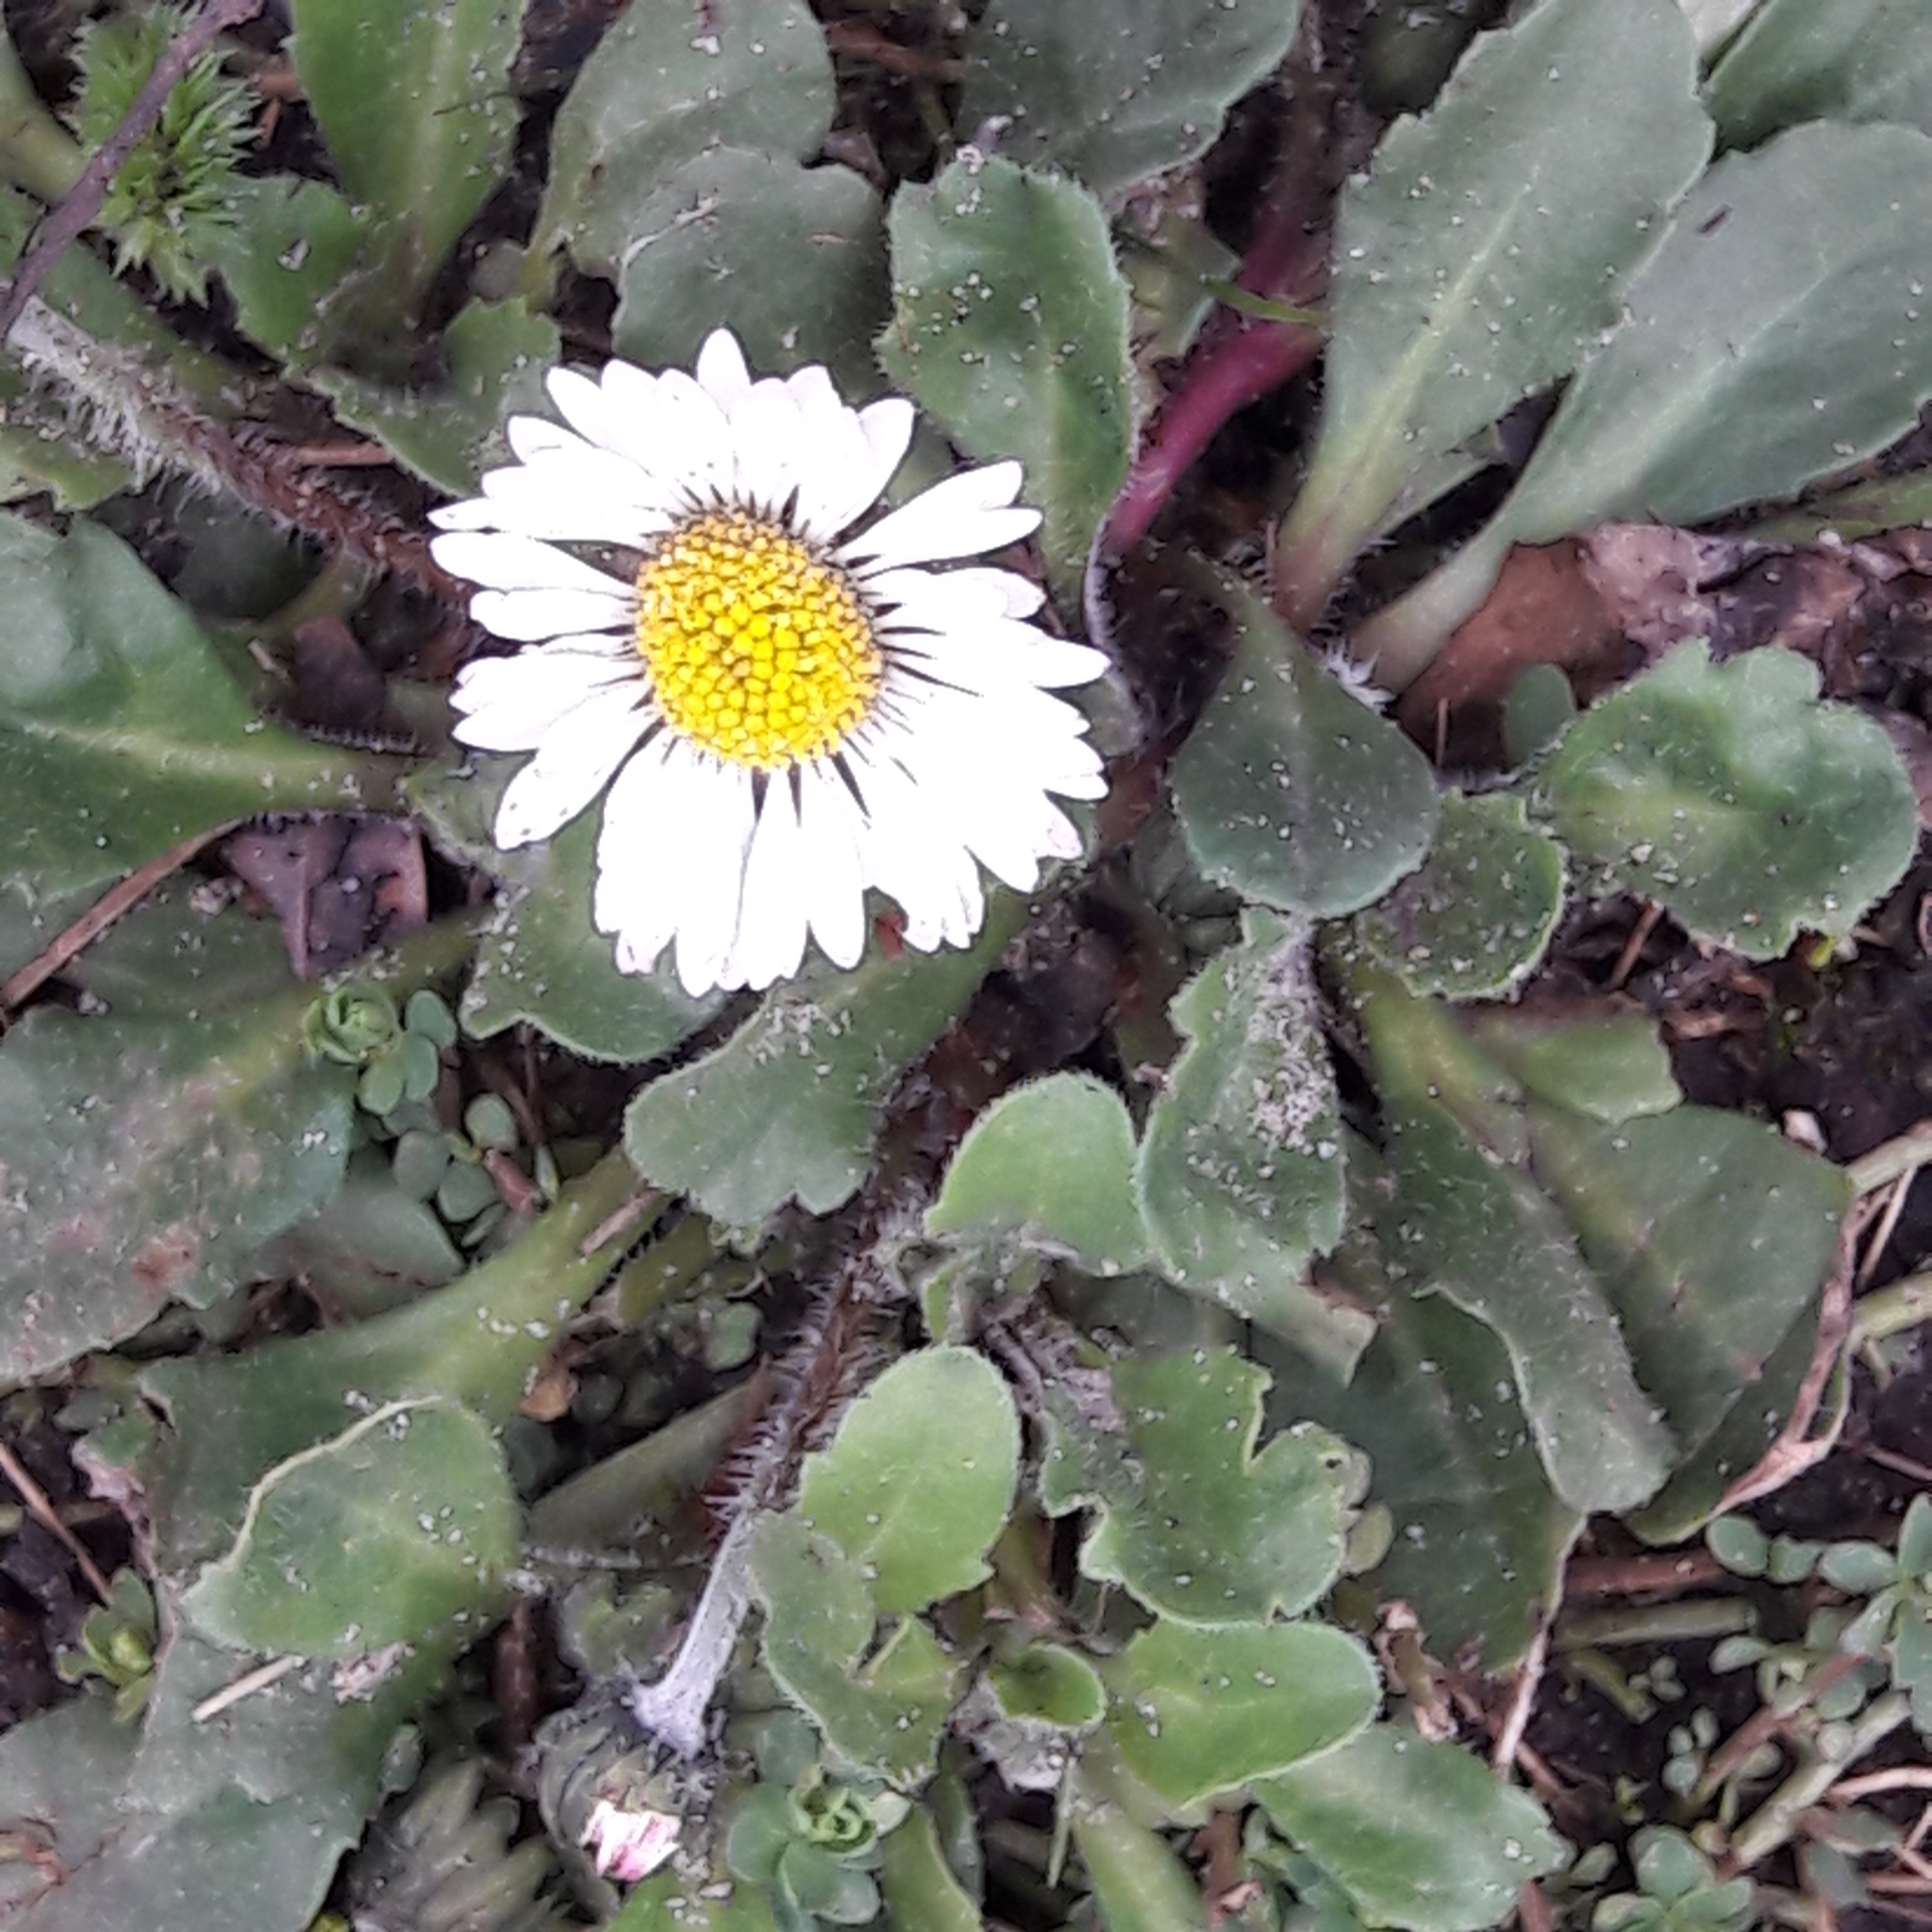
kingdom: Plantae
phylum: Tracheophyta
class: Magnoliopsida
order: Asterales
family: Asteraceae
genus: Bellis
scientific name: Bellis perennis
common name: Lawndaisy
